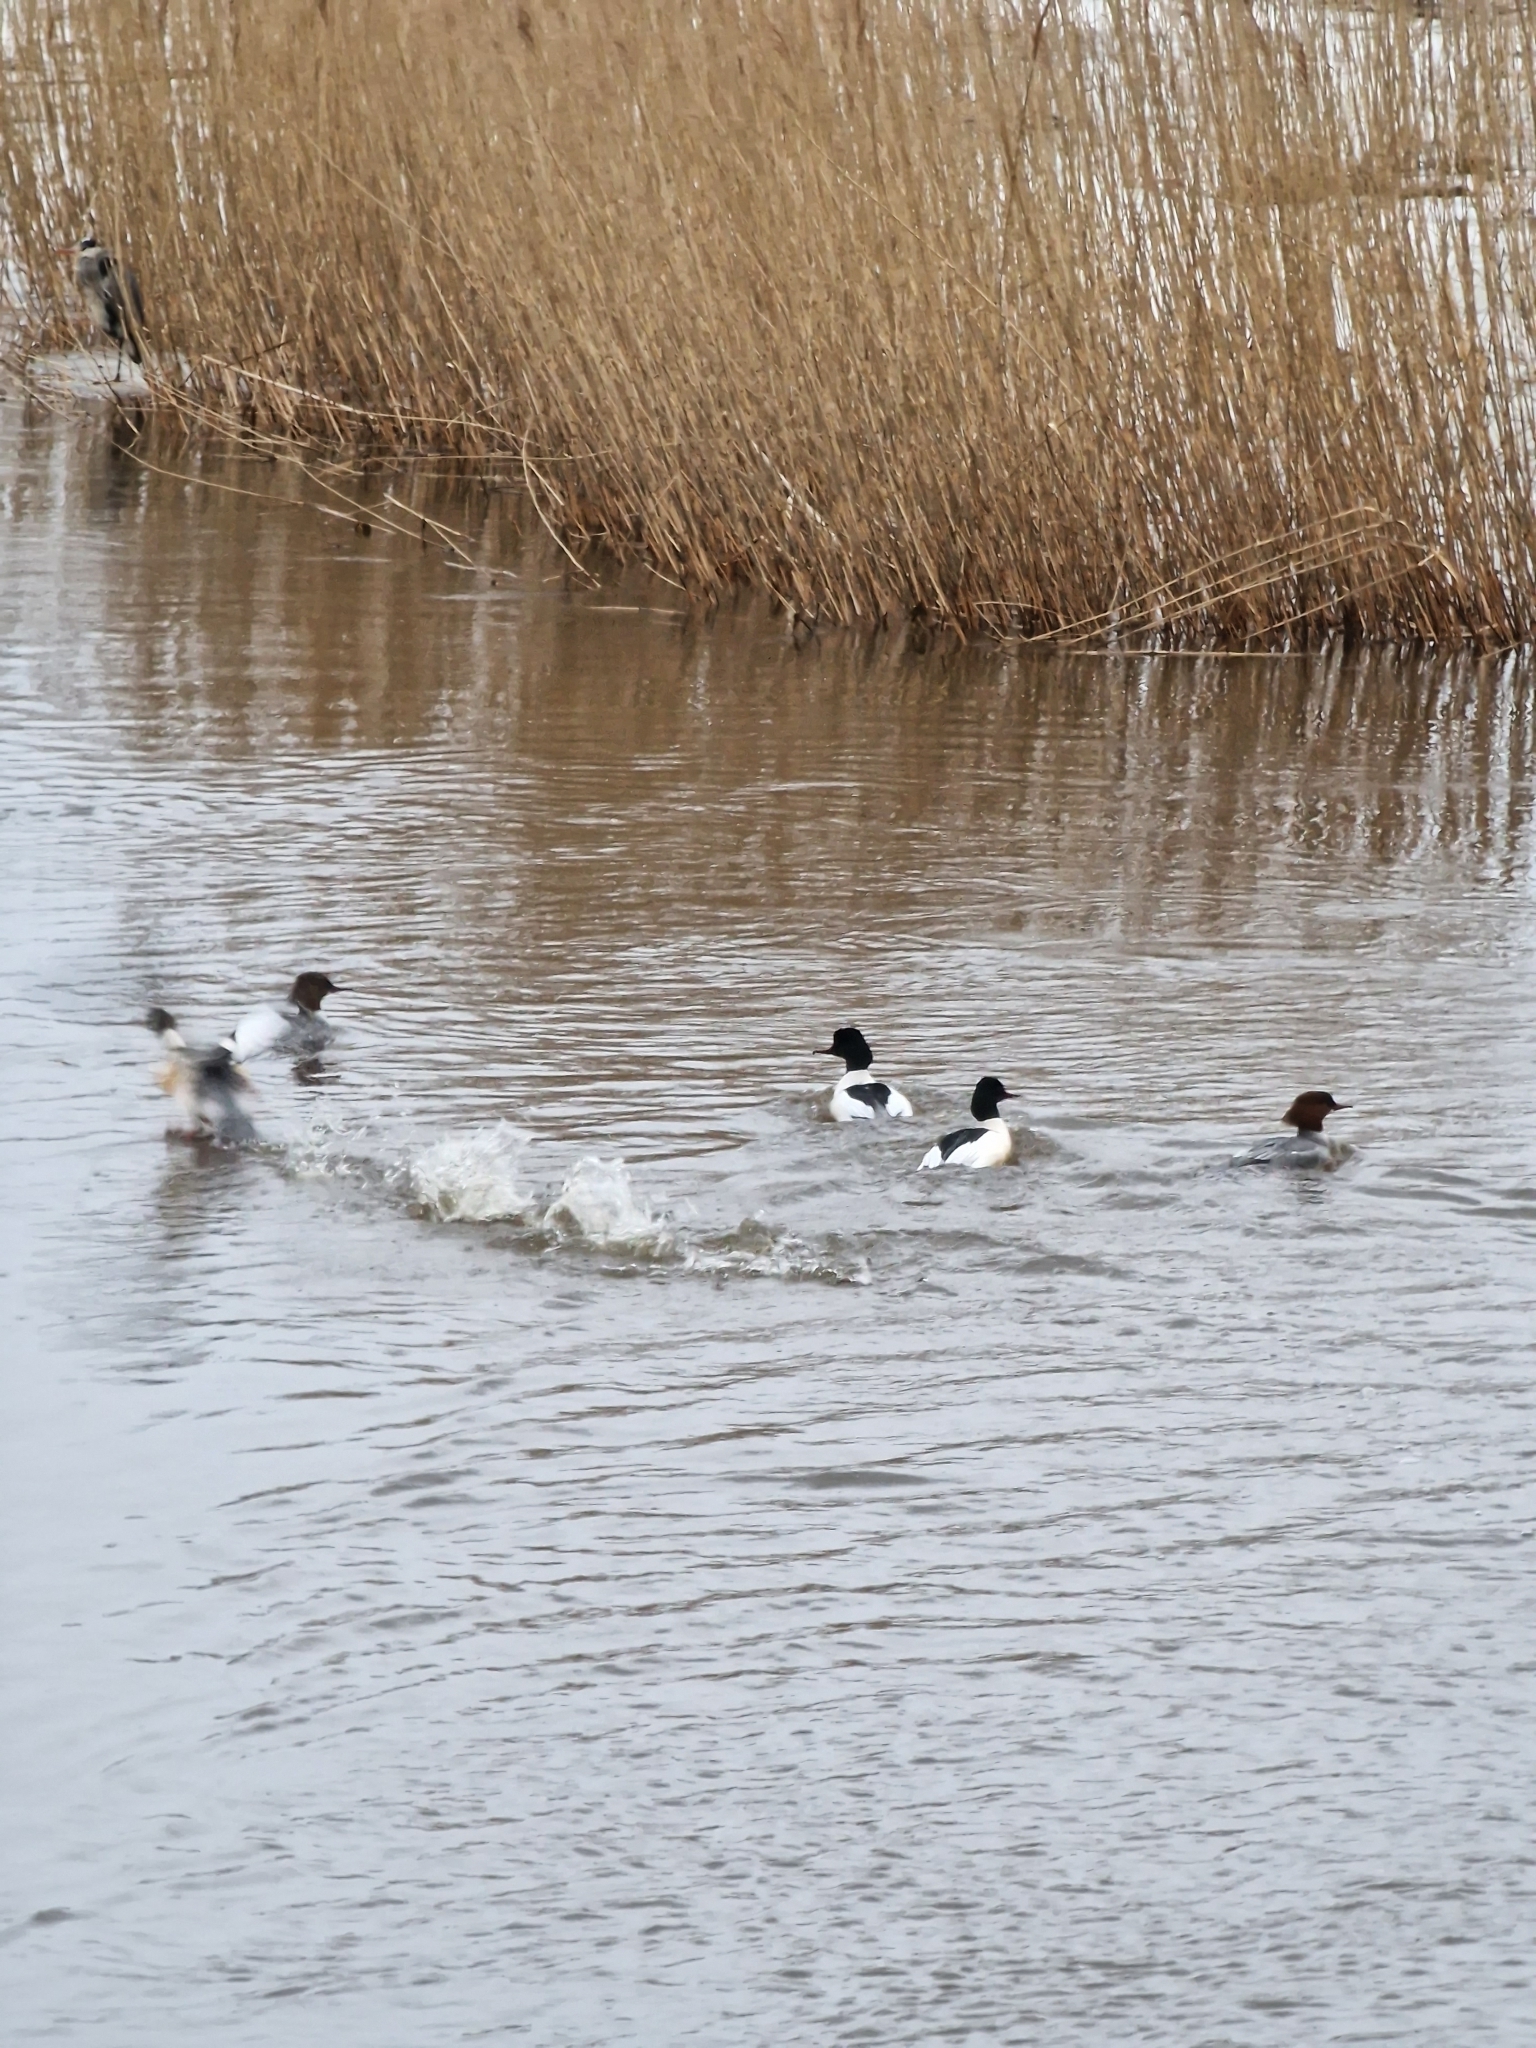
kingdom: Animalia
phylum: Chordata
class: Aves
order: Anseriformes
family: Anatidae
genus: Mergus
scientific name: Mergus merganser
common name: Common merganser
